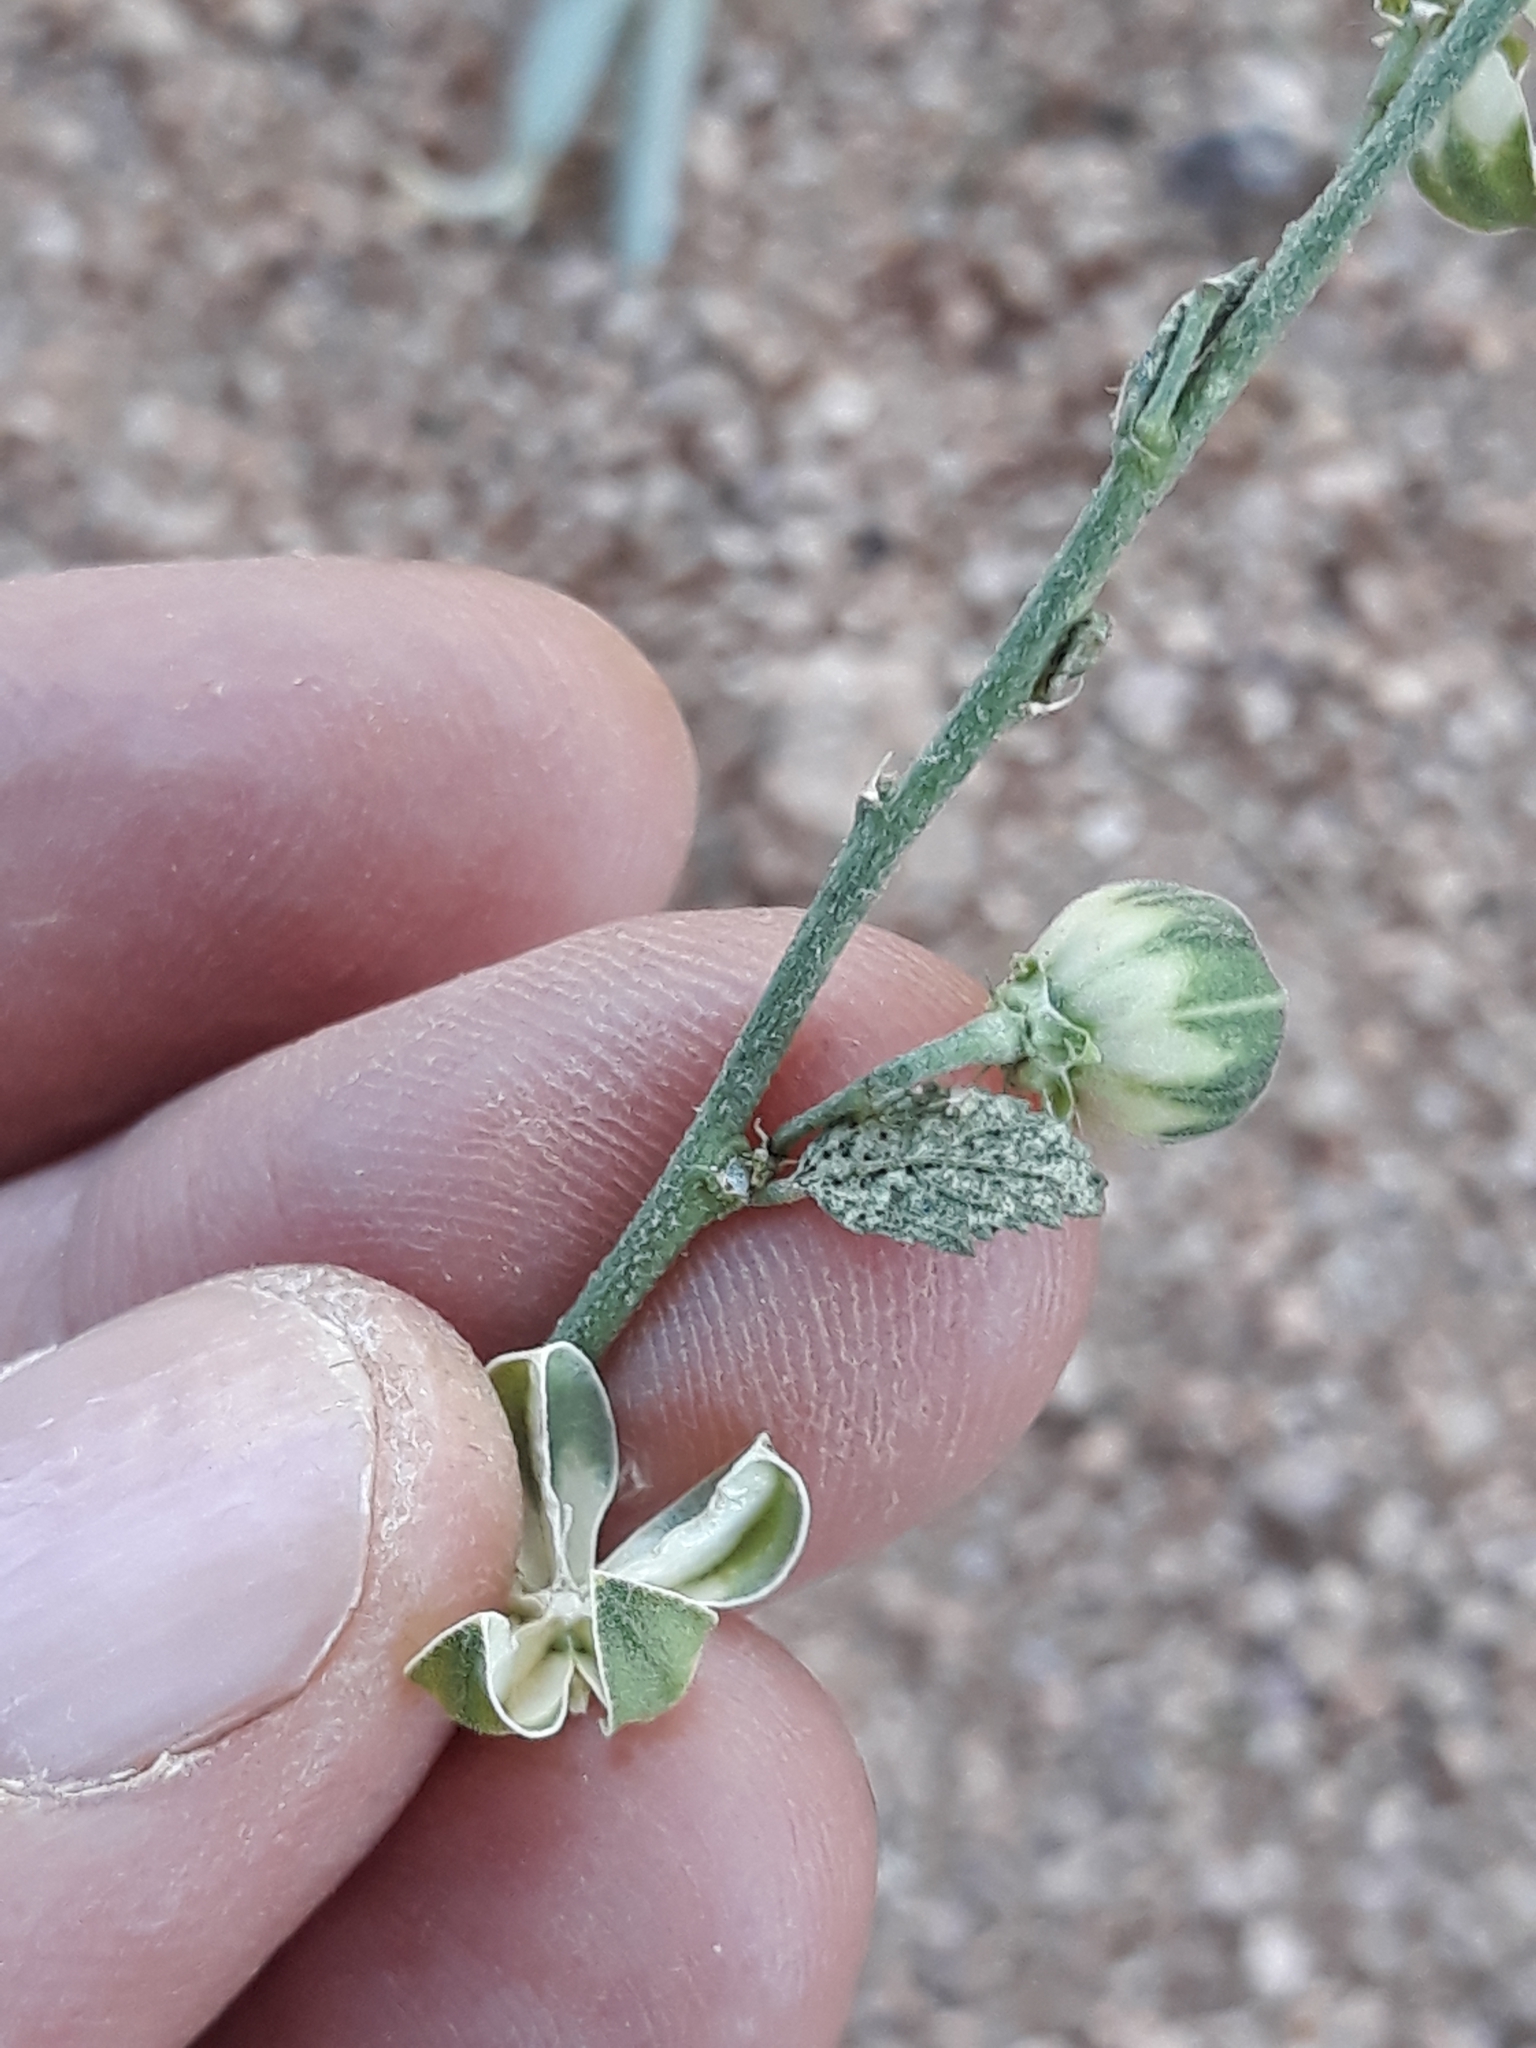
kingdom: Plantae
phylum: Tracheophyta
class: Magnoliopsida
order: Malvales
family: Malvaceae
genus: Hibiscus
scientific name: Hibiscus micranthus
